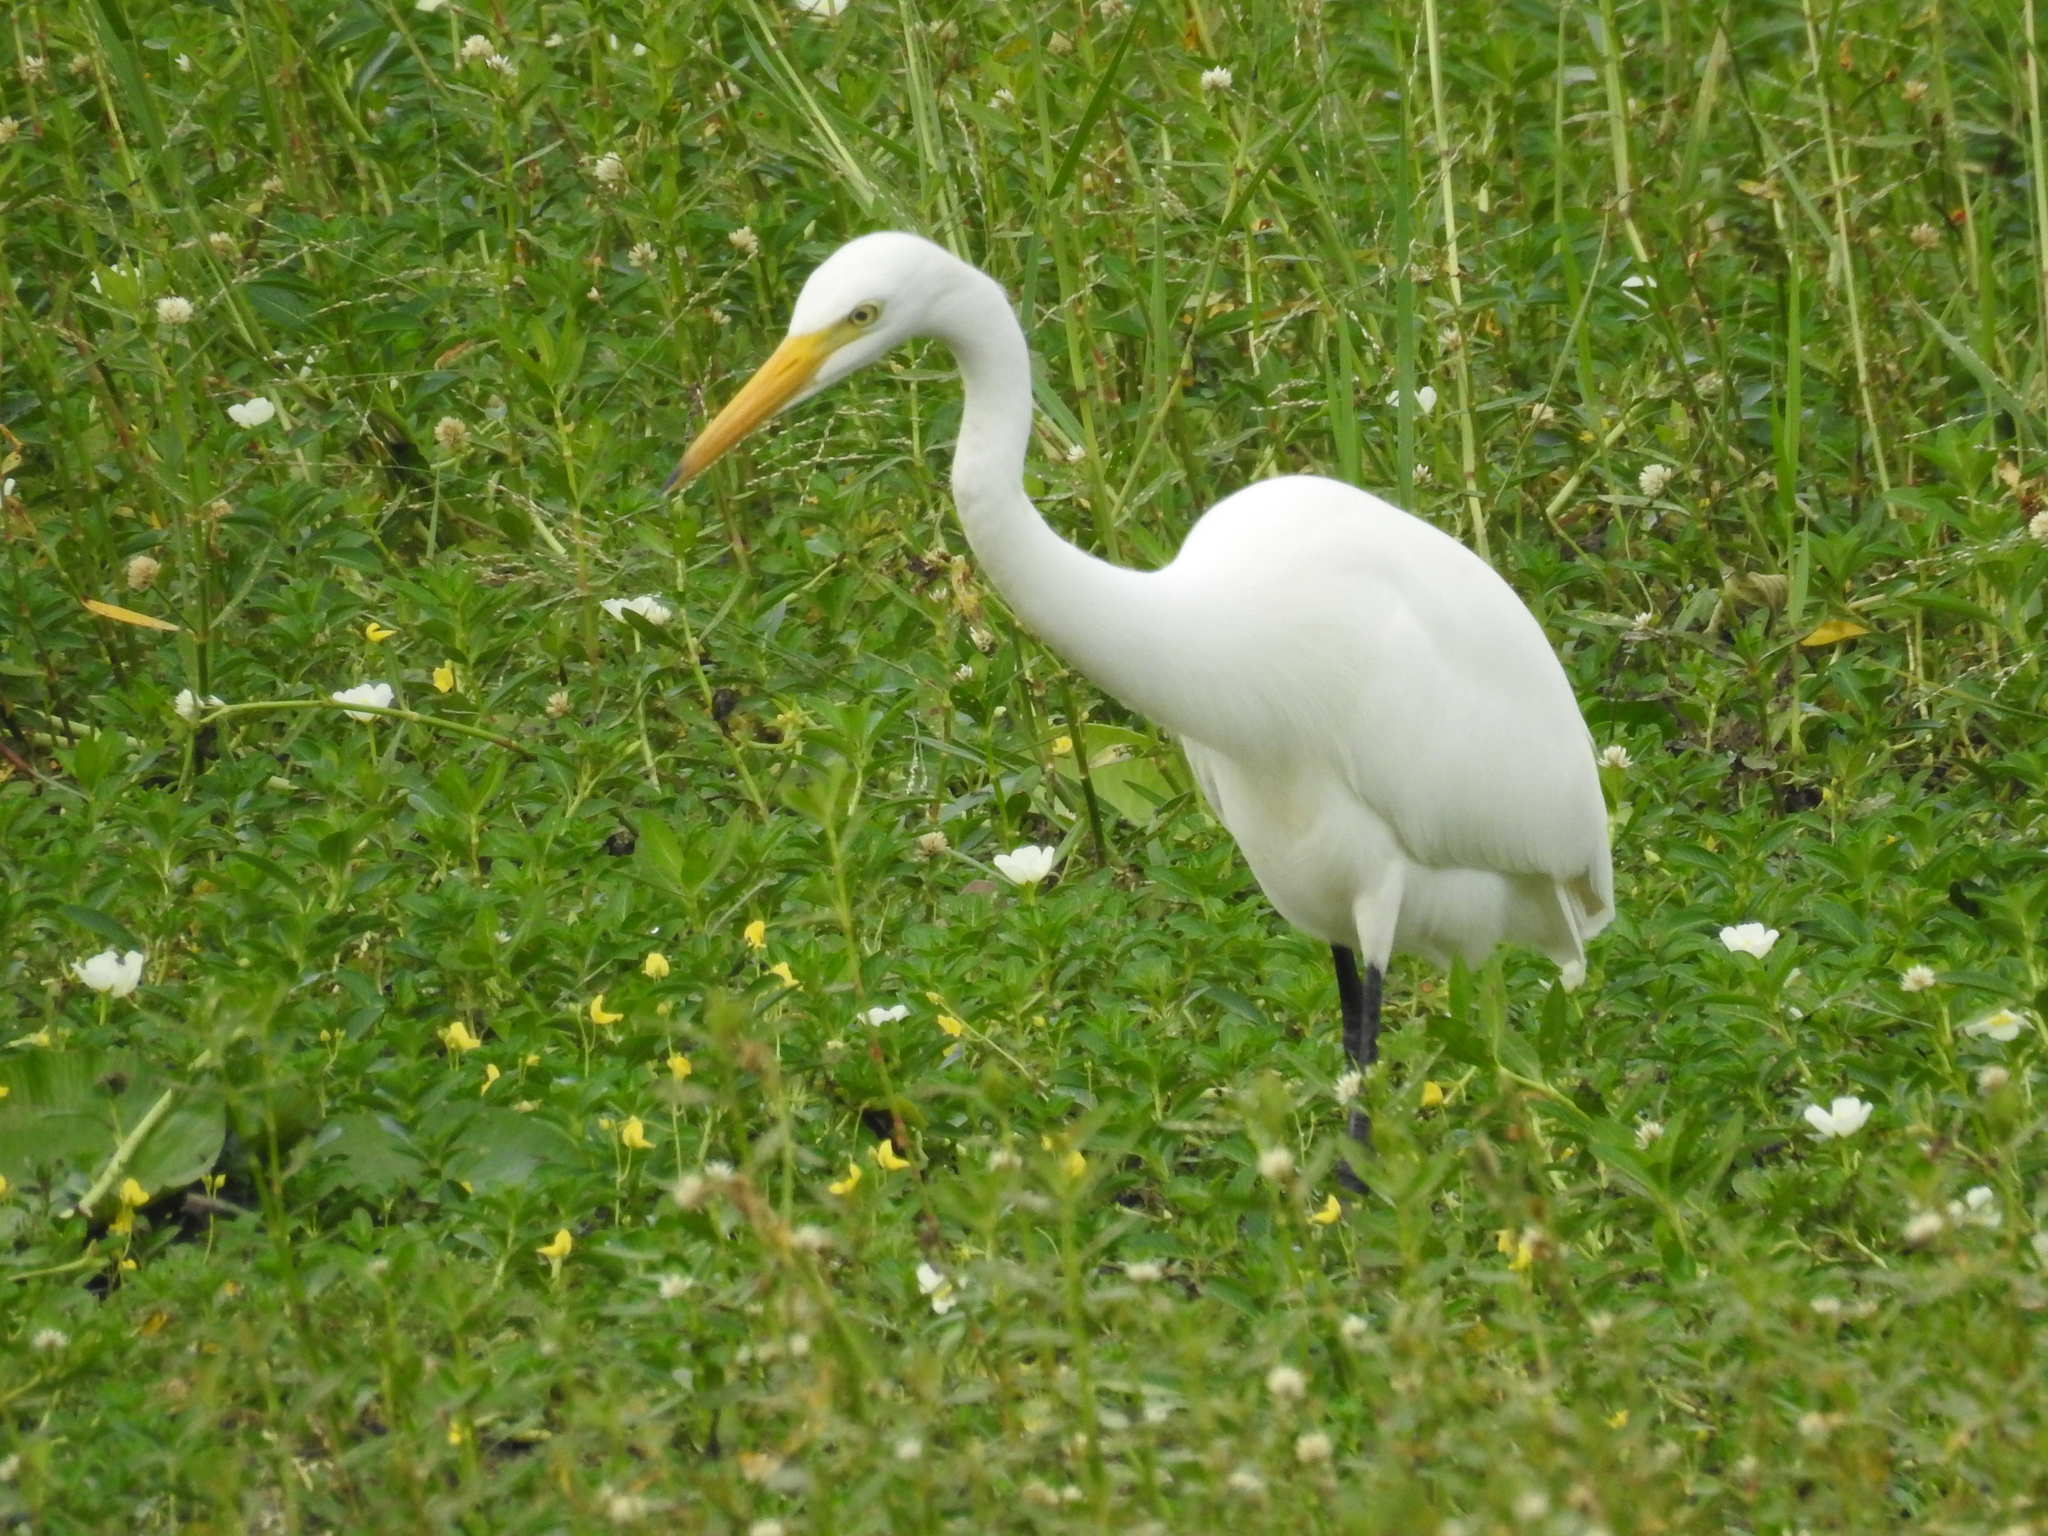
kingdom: Animalia
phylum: Chordata
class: Aves
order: Pelecaniformes
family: Ardeidae
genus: Egretta
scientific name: Egretta intermedia
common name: Intermediate egret
